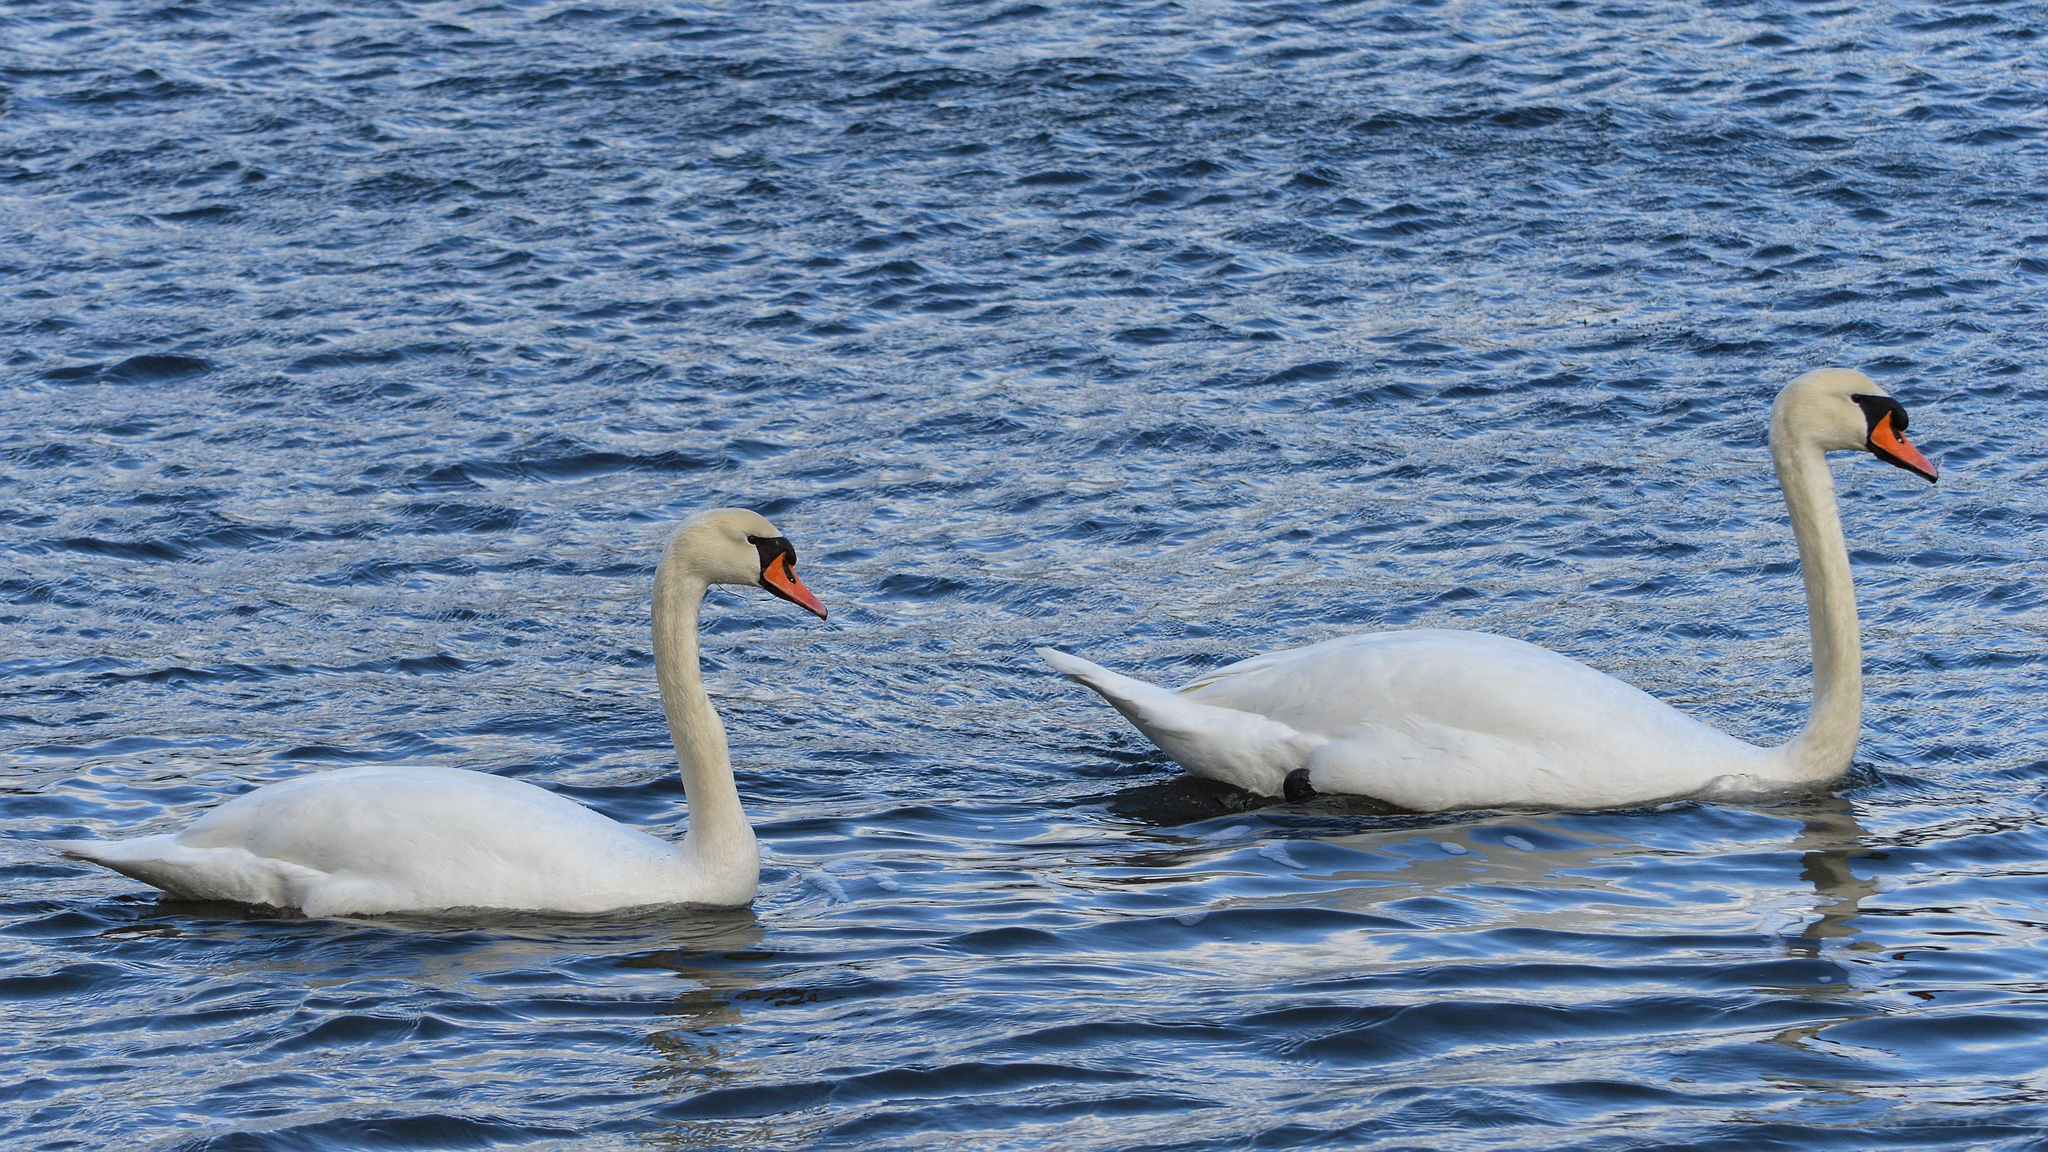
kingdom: Animalia
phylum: Chordata
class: Aves
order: Anseriformes
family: Anatidae
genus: Cygnus
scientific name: Cygnus olor
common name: Mute swan
